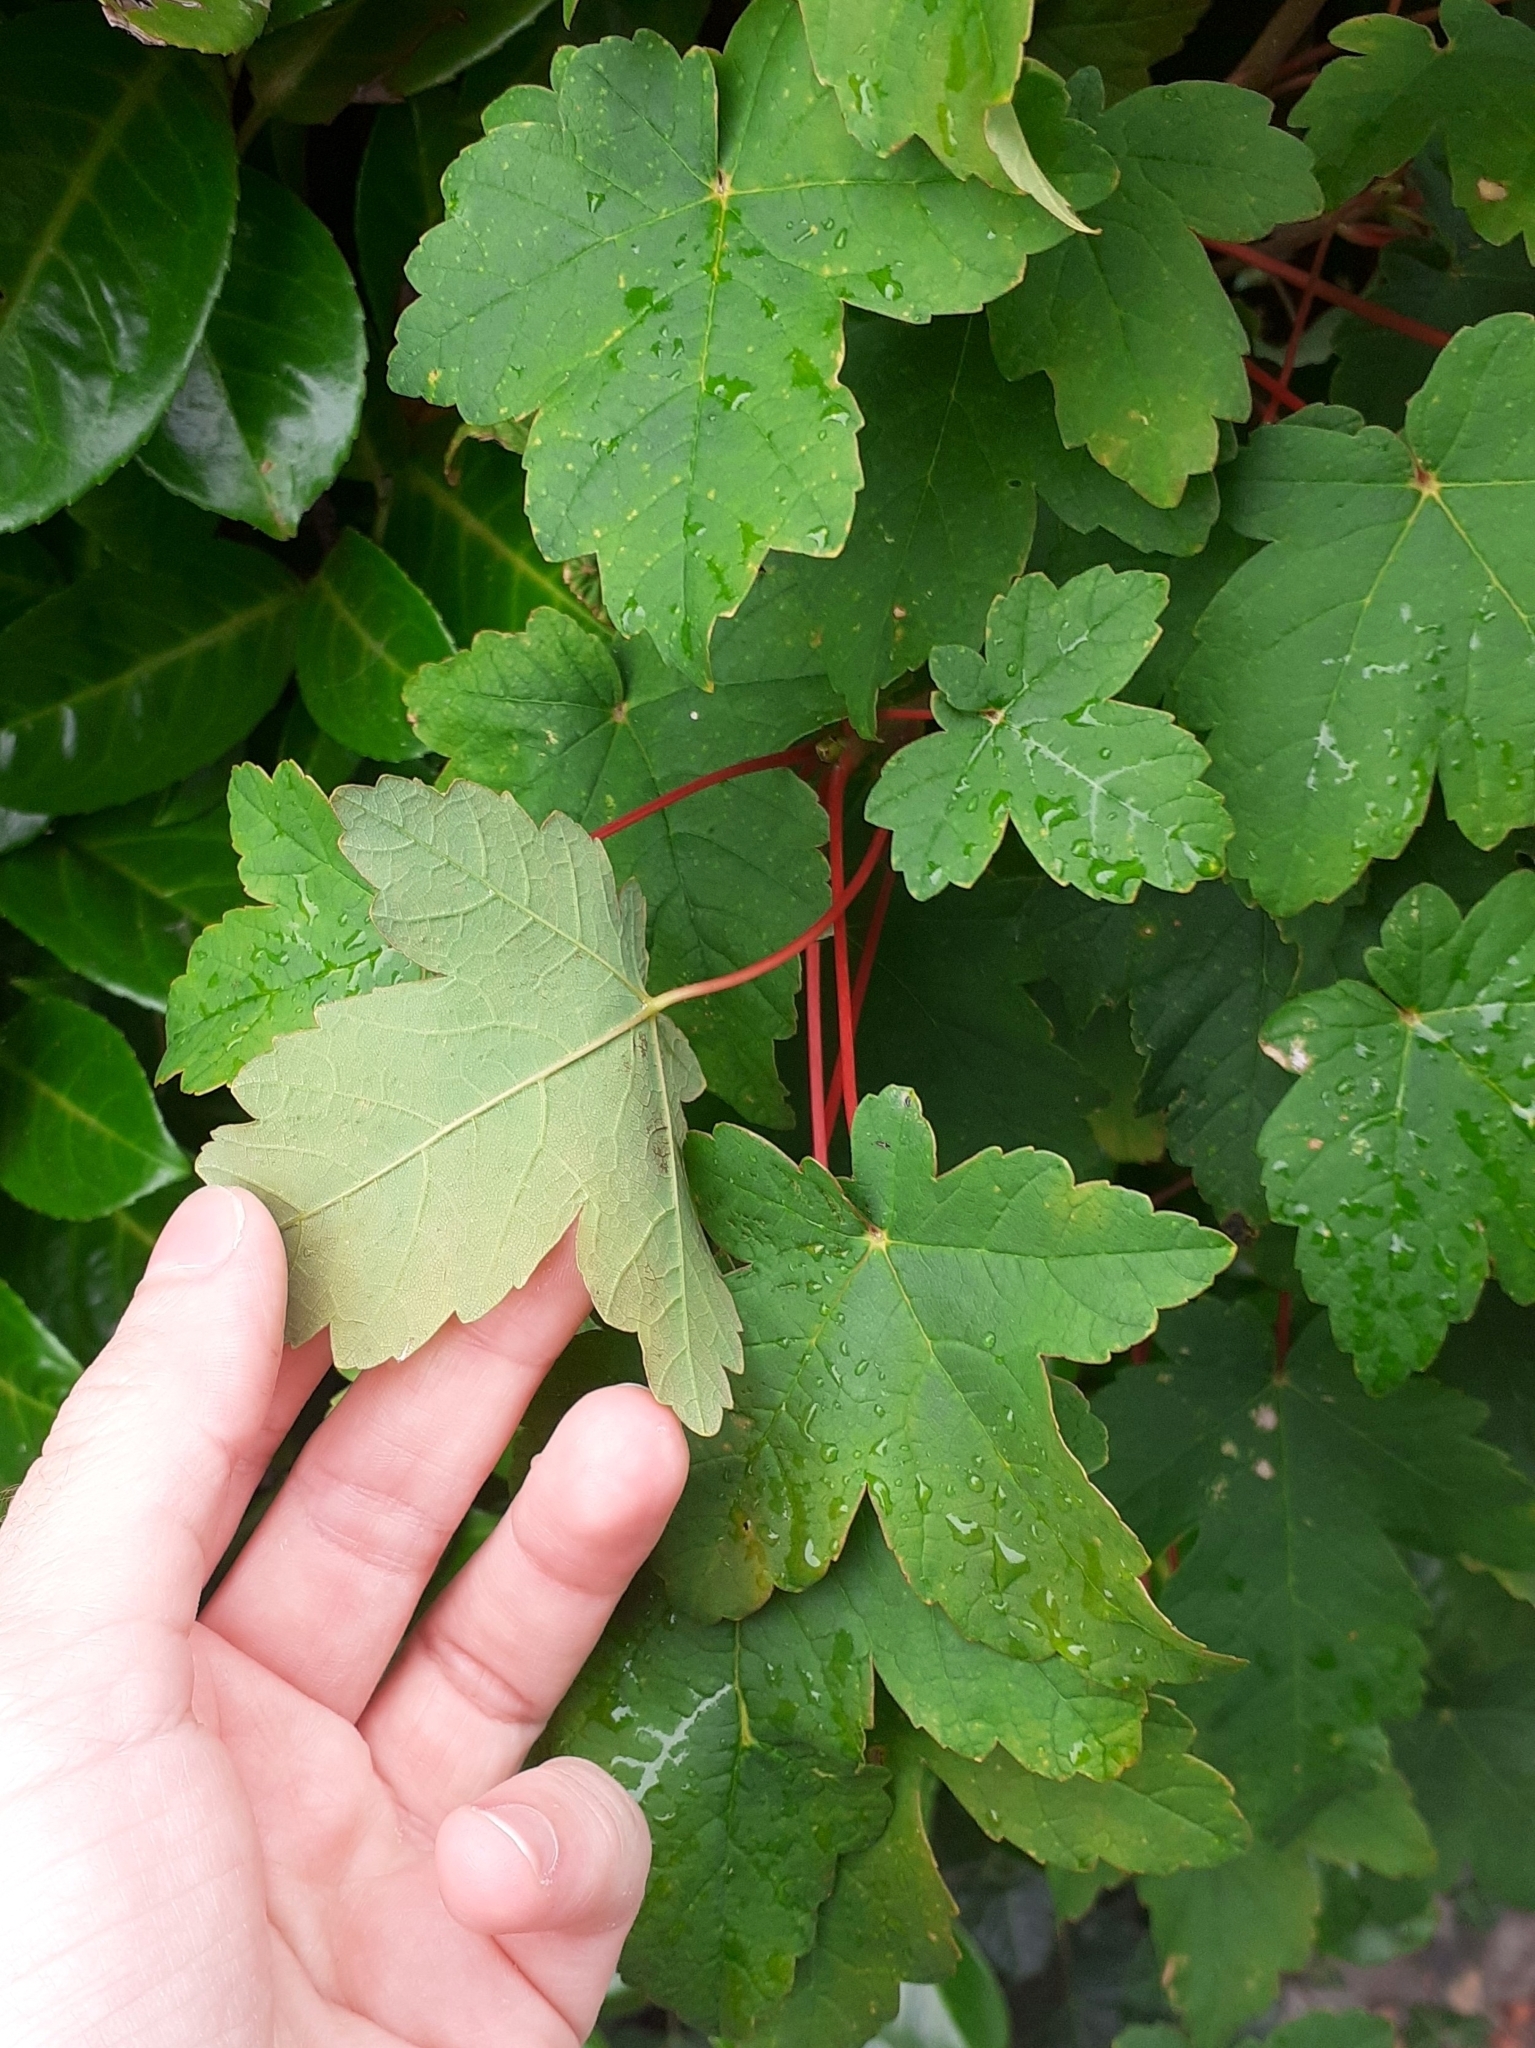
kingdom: Plantae
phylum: Tracheophyta
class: Magnoliopsida
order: Sapindales
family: Sapindaceae
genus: Acer
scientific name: Acer pseudoplatanus
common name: Sycamore
